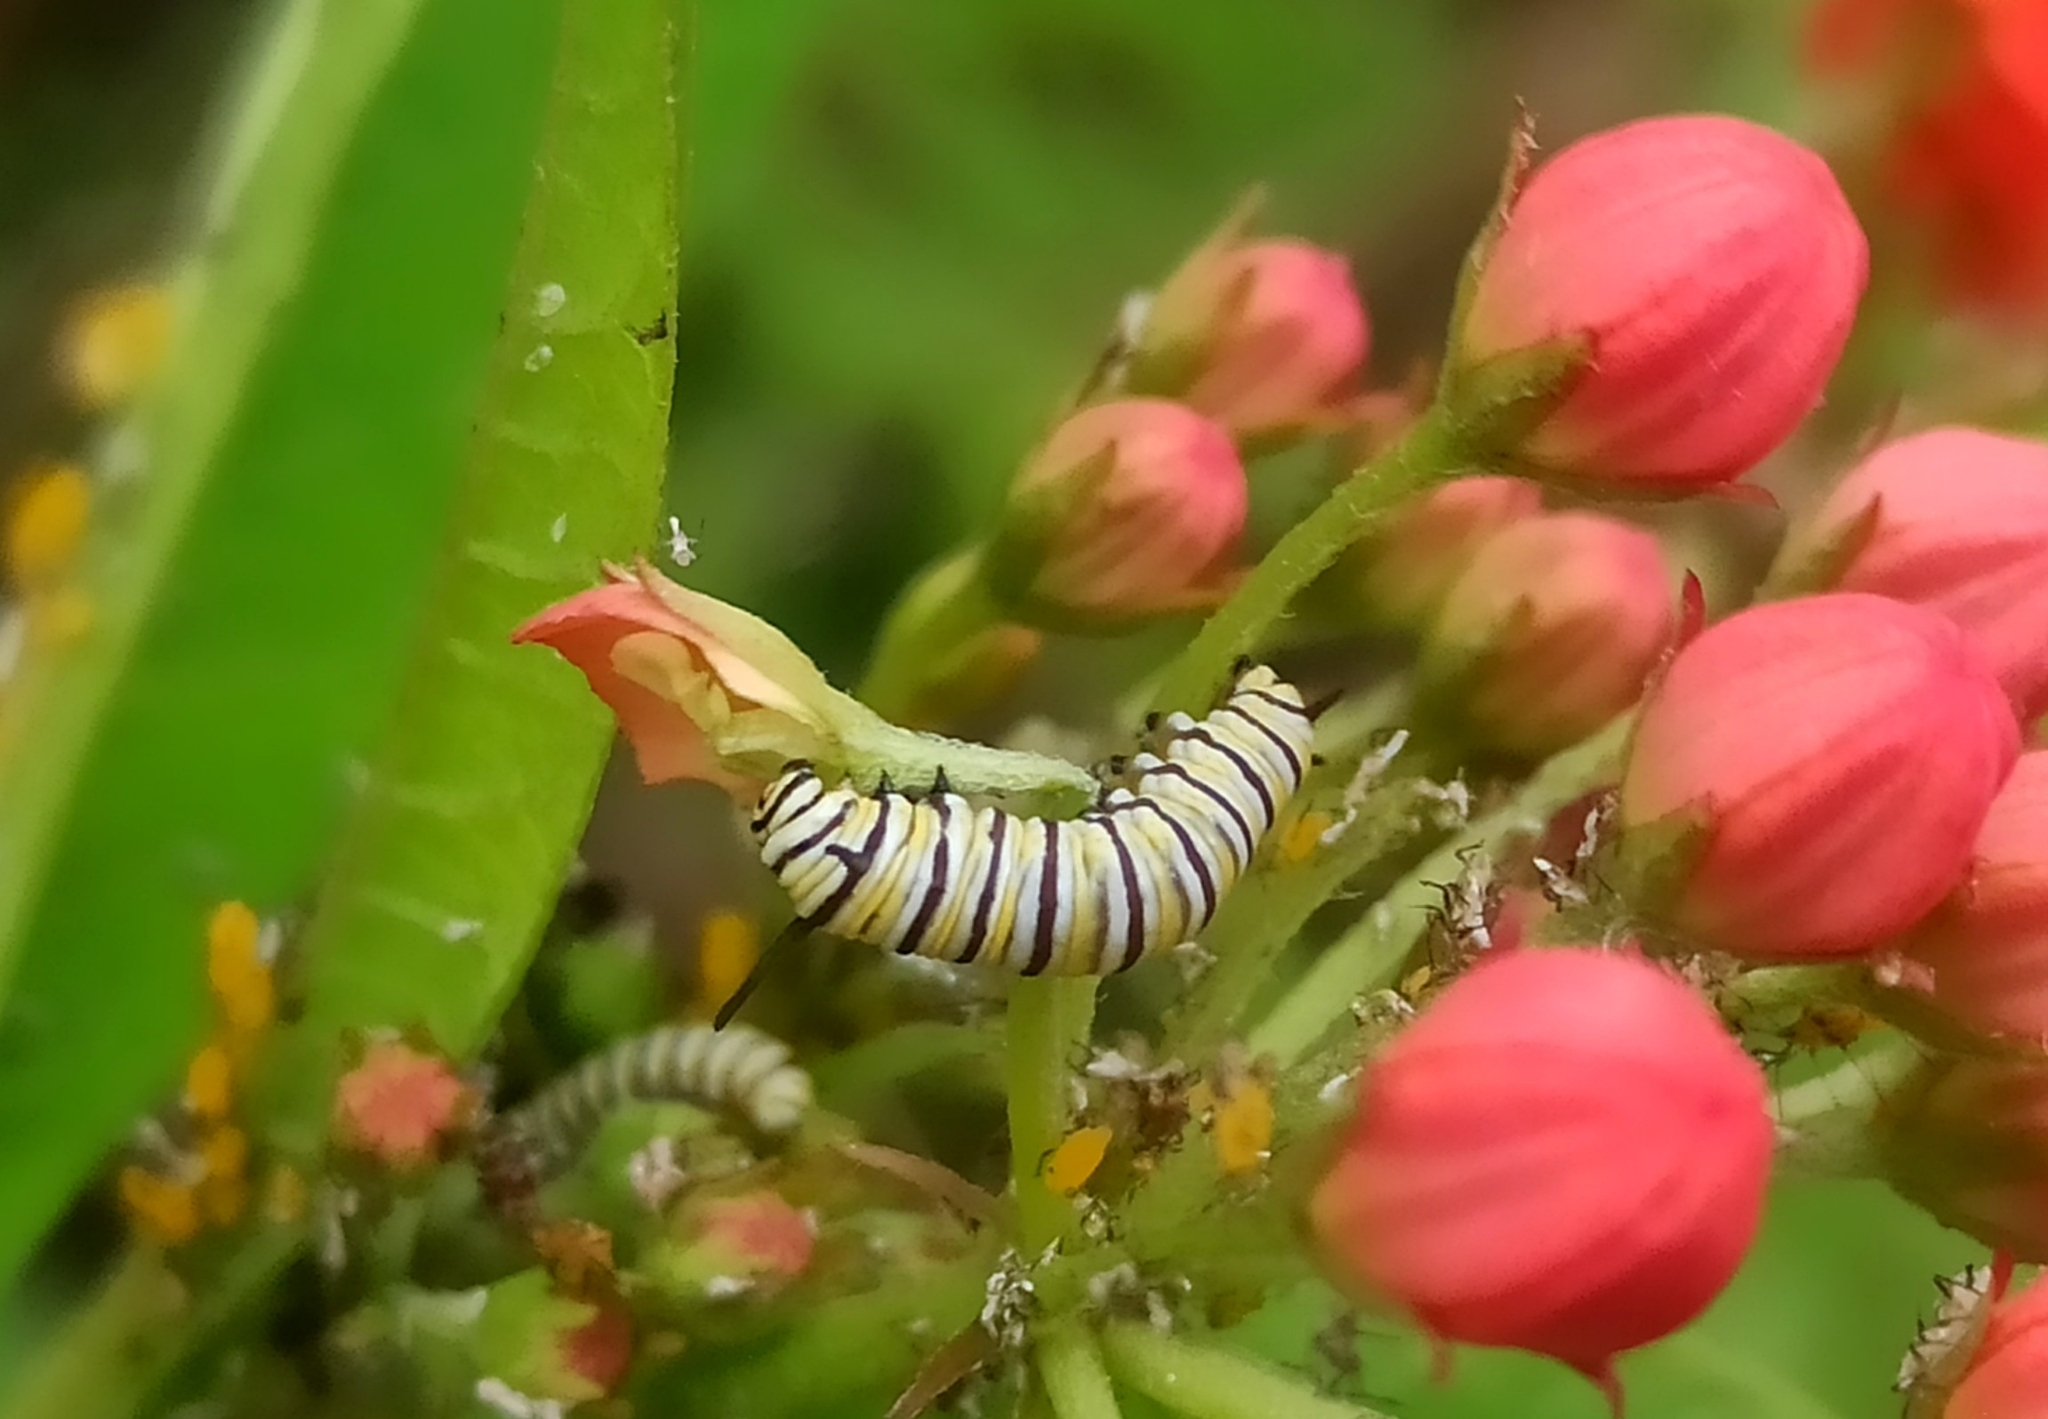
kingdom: Animalia
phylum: Arthropoda
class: Insecta
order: Lepidoptera
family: Nymphalidae
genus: Danaus
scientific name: Danaus plexippus
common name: Monarch
